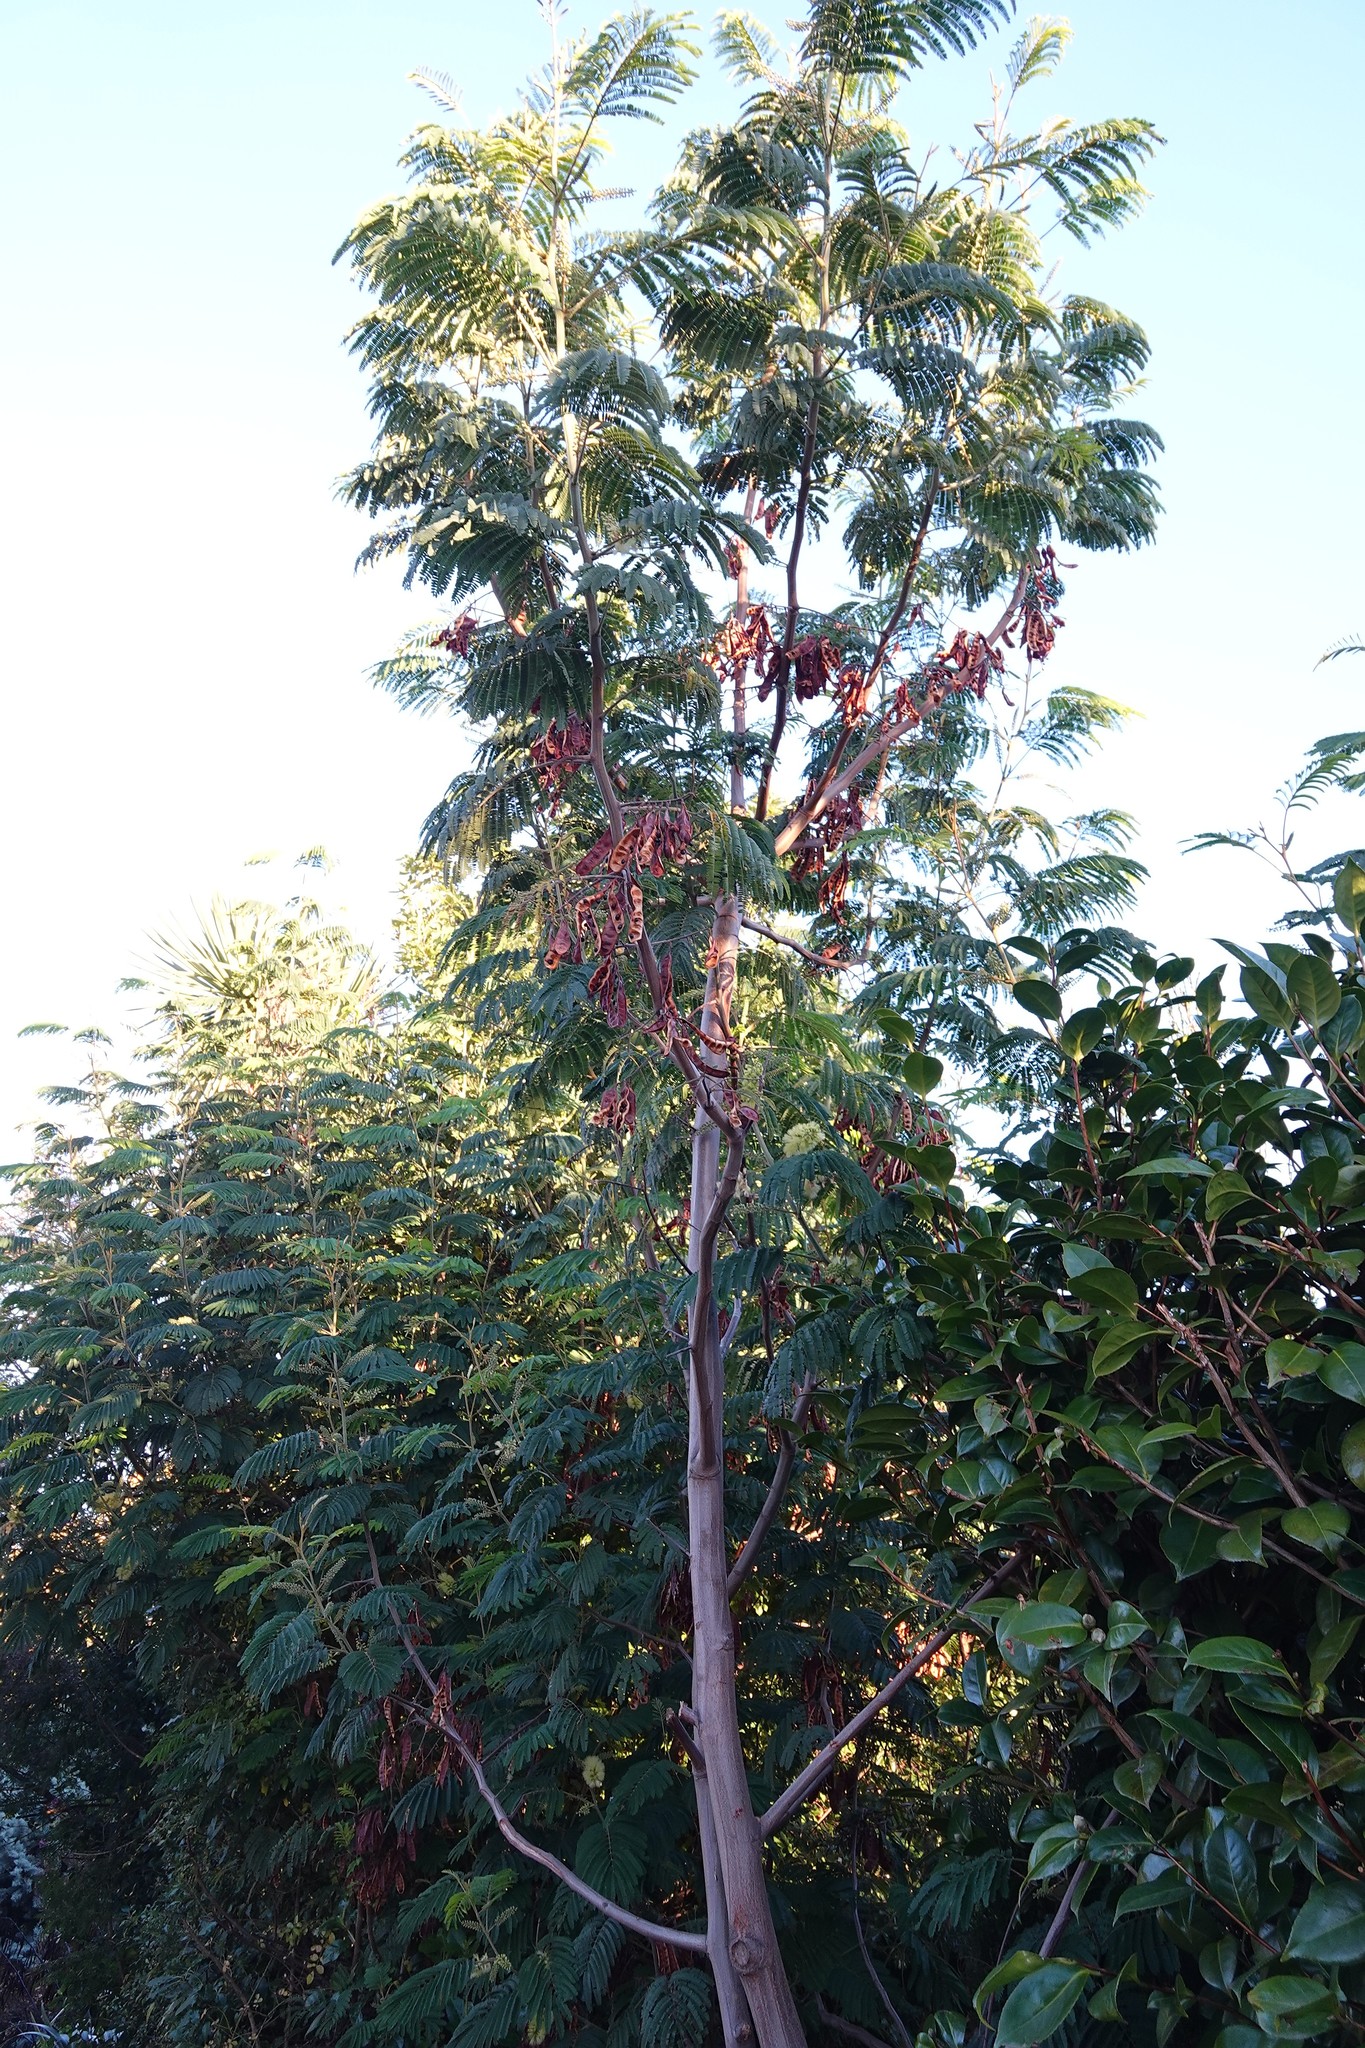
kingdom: Plantae
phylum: Tracheophyta
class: Magnoliopsida
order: Fabales
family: Fabaceae
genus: Paraserianthes
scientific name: Paraserianthes lophantha
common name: Plume albizia
